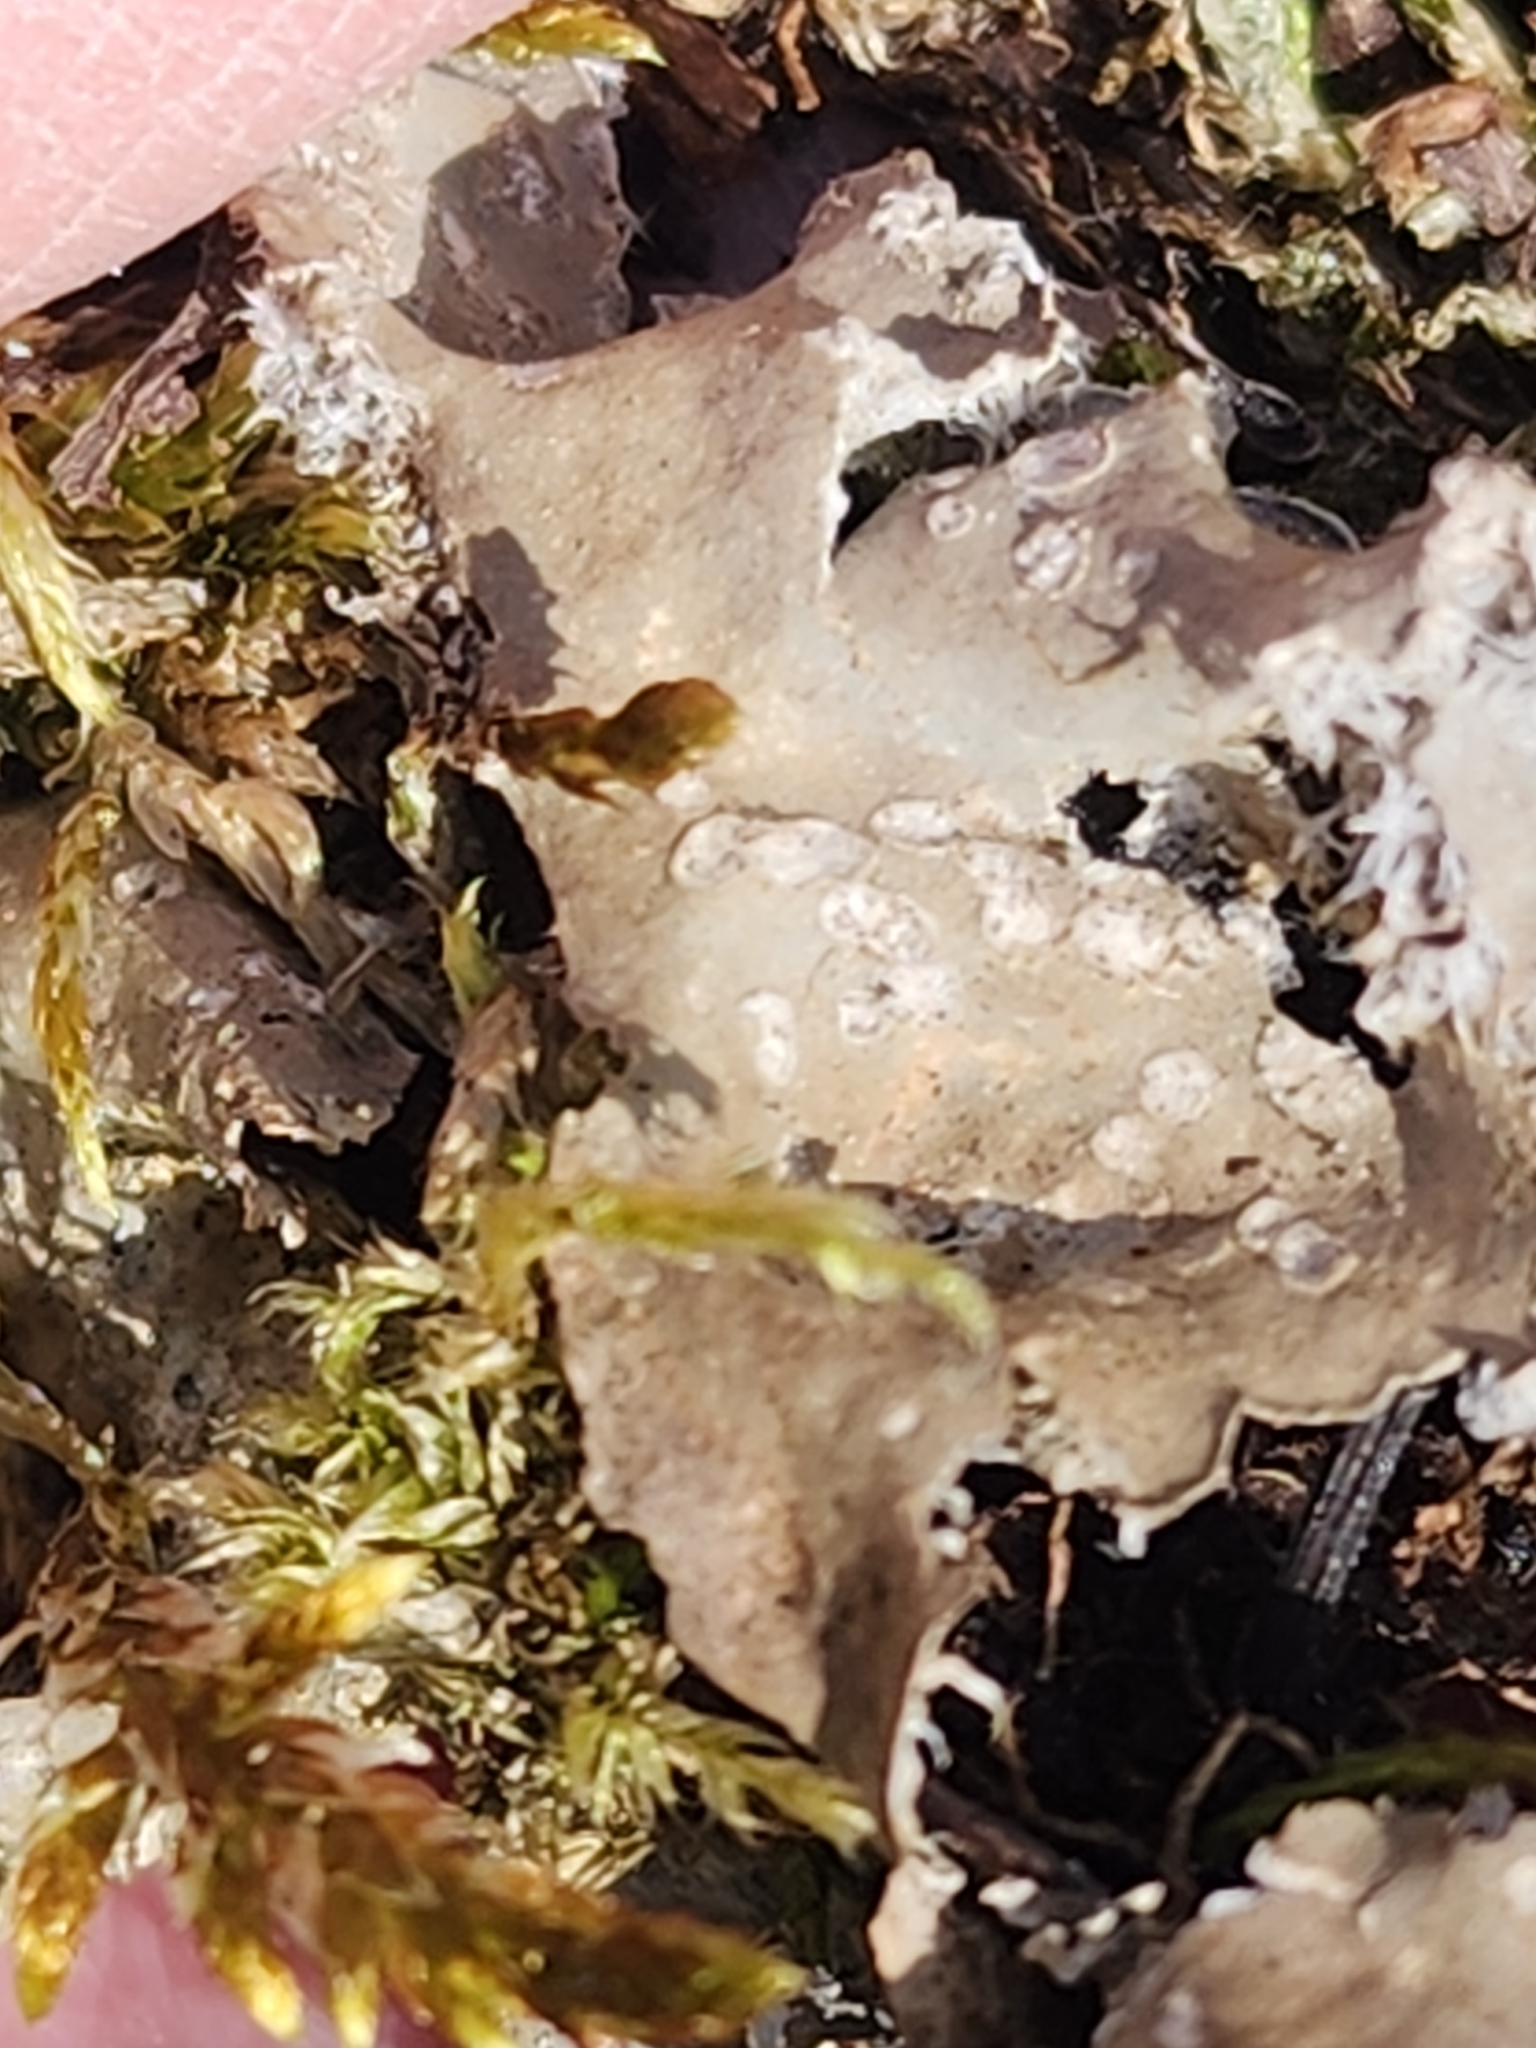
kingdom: Fungi
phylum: Ascomycota
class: Lecanoromycetes
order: Peltigerales
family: Peltigeraceae
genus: Peltigera
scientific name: Peltigera extenuata
